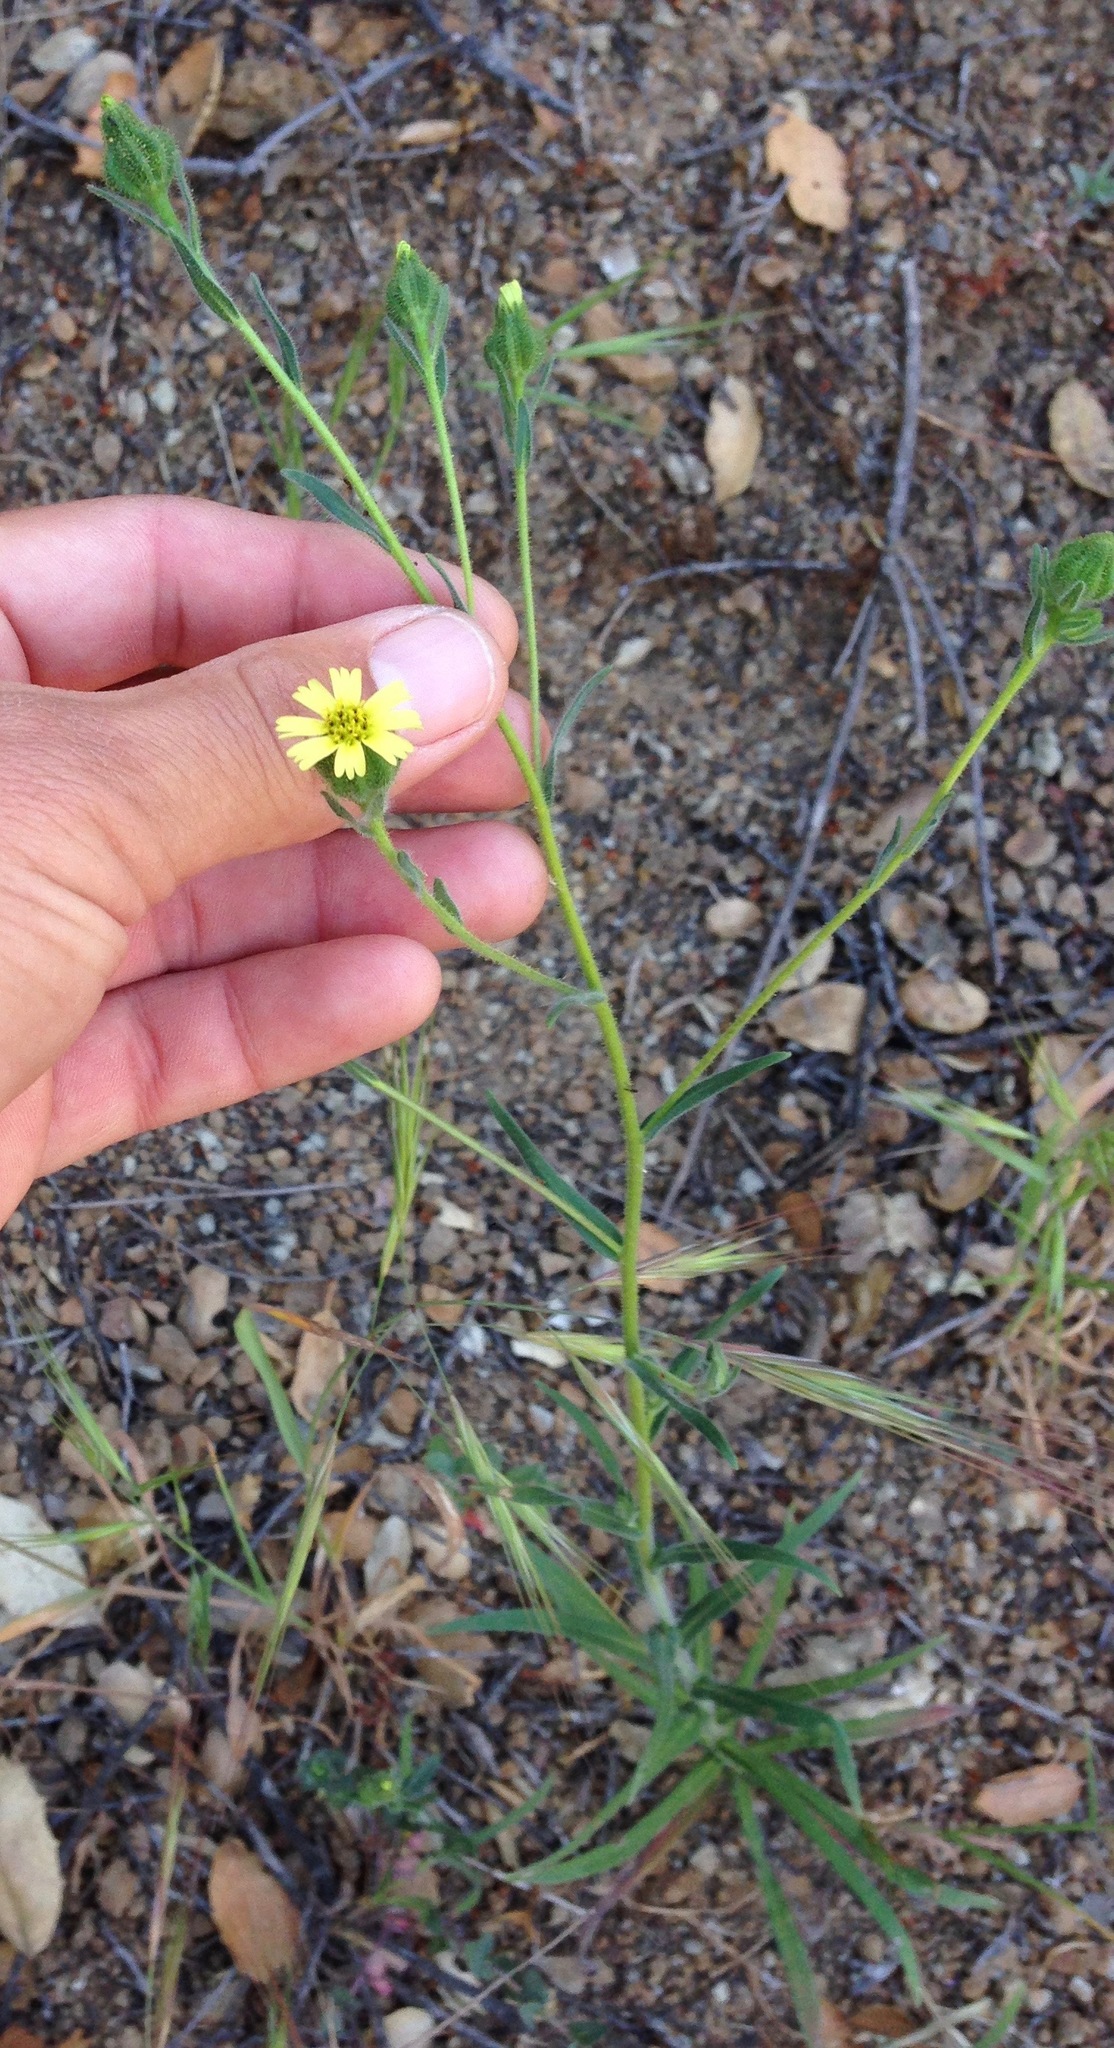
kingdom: Plantae
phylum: Tracheophyta
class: Magnoliopsida
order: Asterales
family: Asteraceae
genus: Madia
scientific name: Madia gracilis
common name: Grassy tarweed
